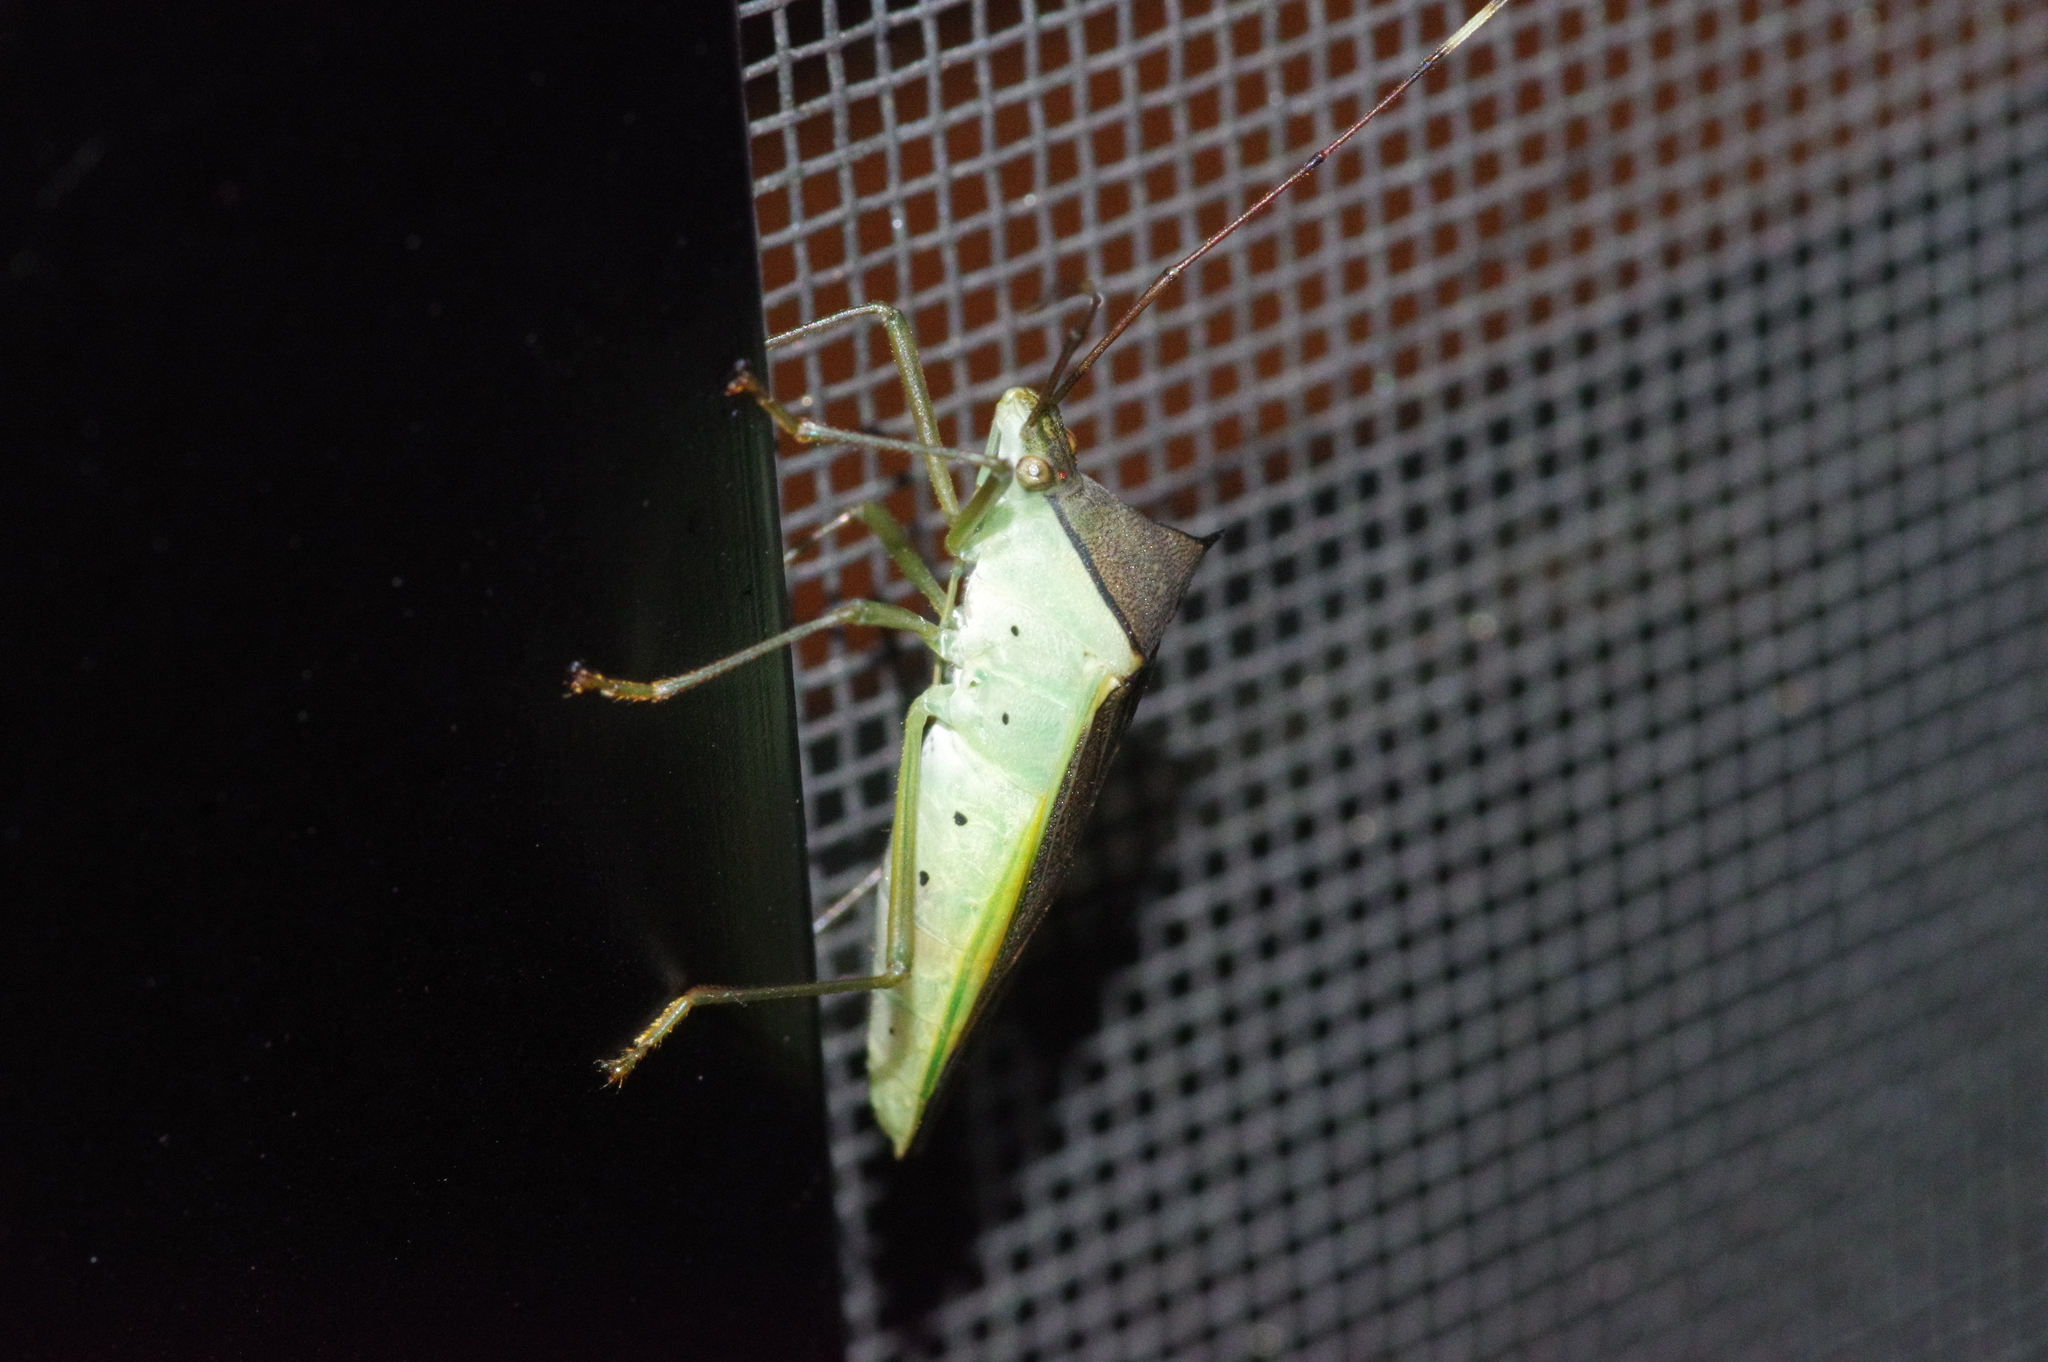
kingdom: Animalia
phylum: Arthropoda
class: Insecta
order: Hemiptera
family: Coreidae
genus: Paradasynus
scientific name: Paradasynus spinosus
